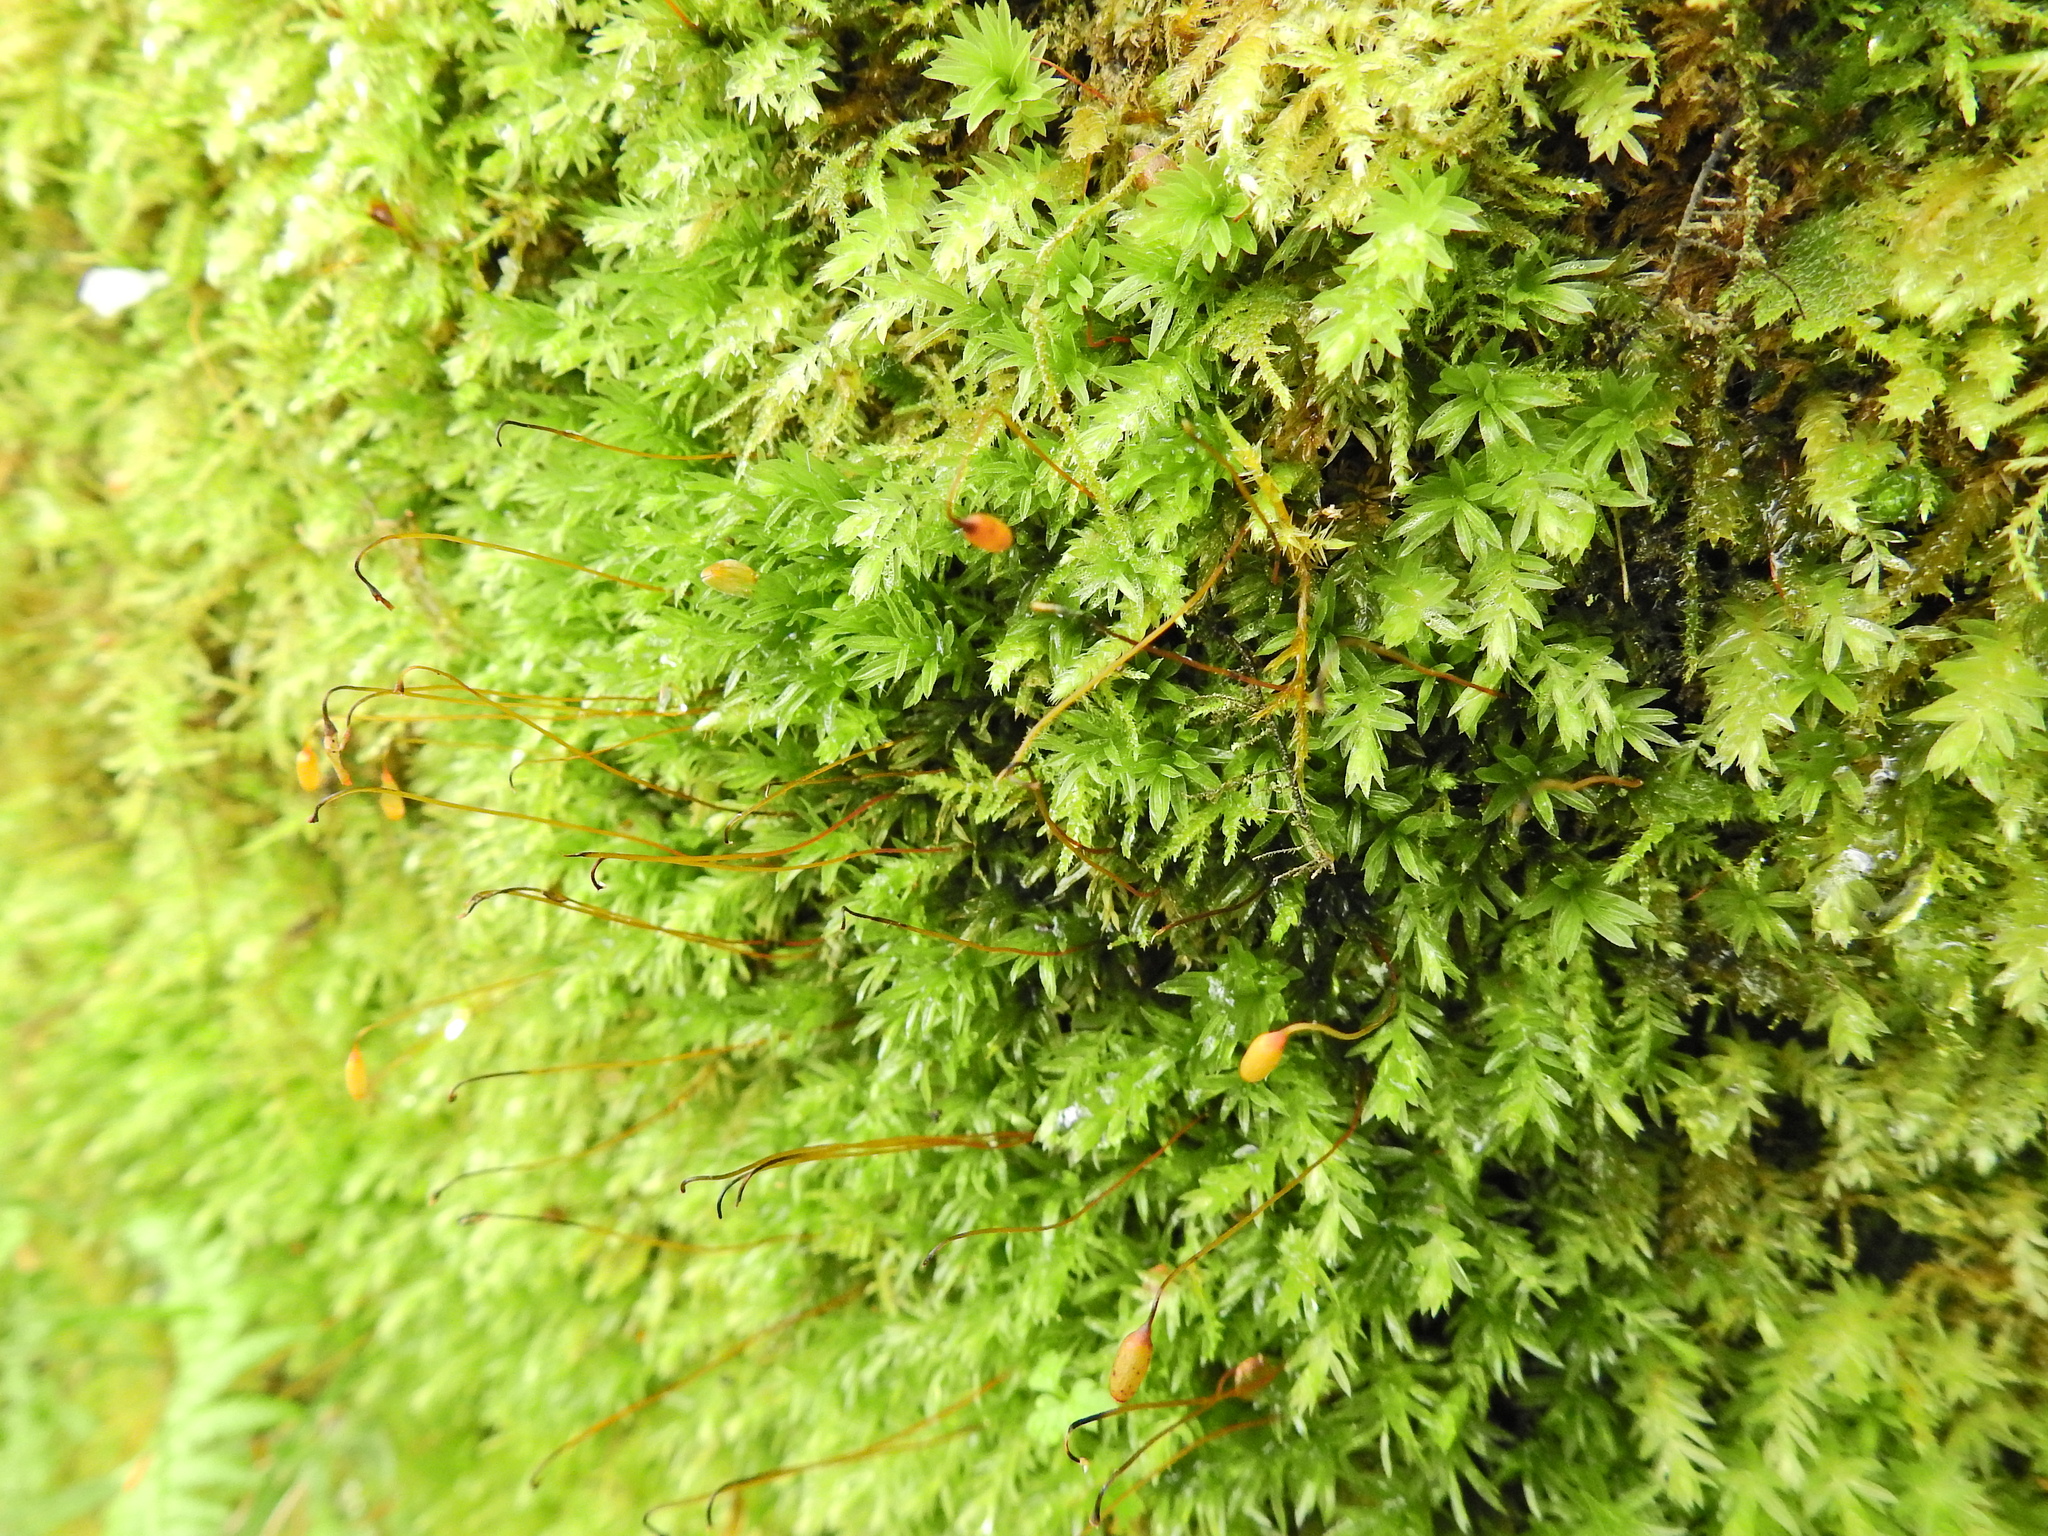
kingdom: Plantae
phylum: Bryophyta
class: Bryopsida
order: Bryales
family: Mniaceae
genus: Mnium
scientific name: Mnium hornum
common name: Swan's-neck leafy moss
